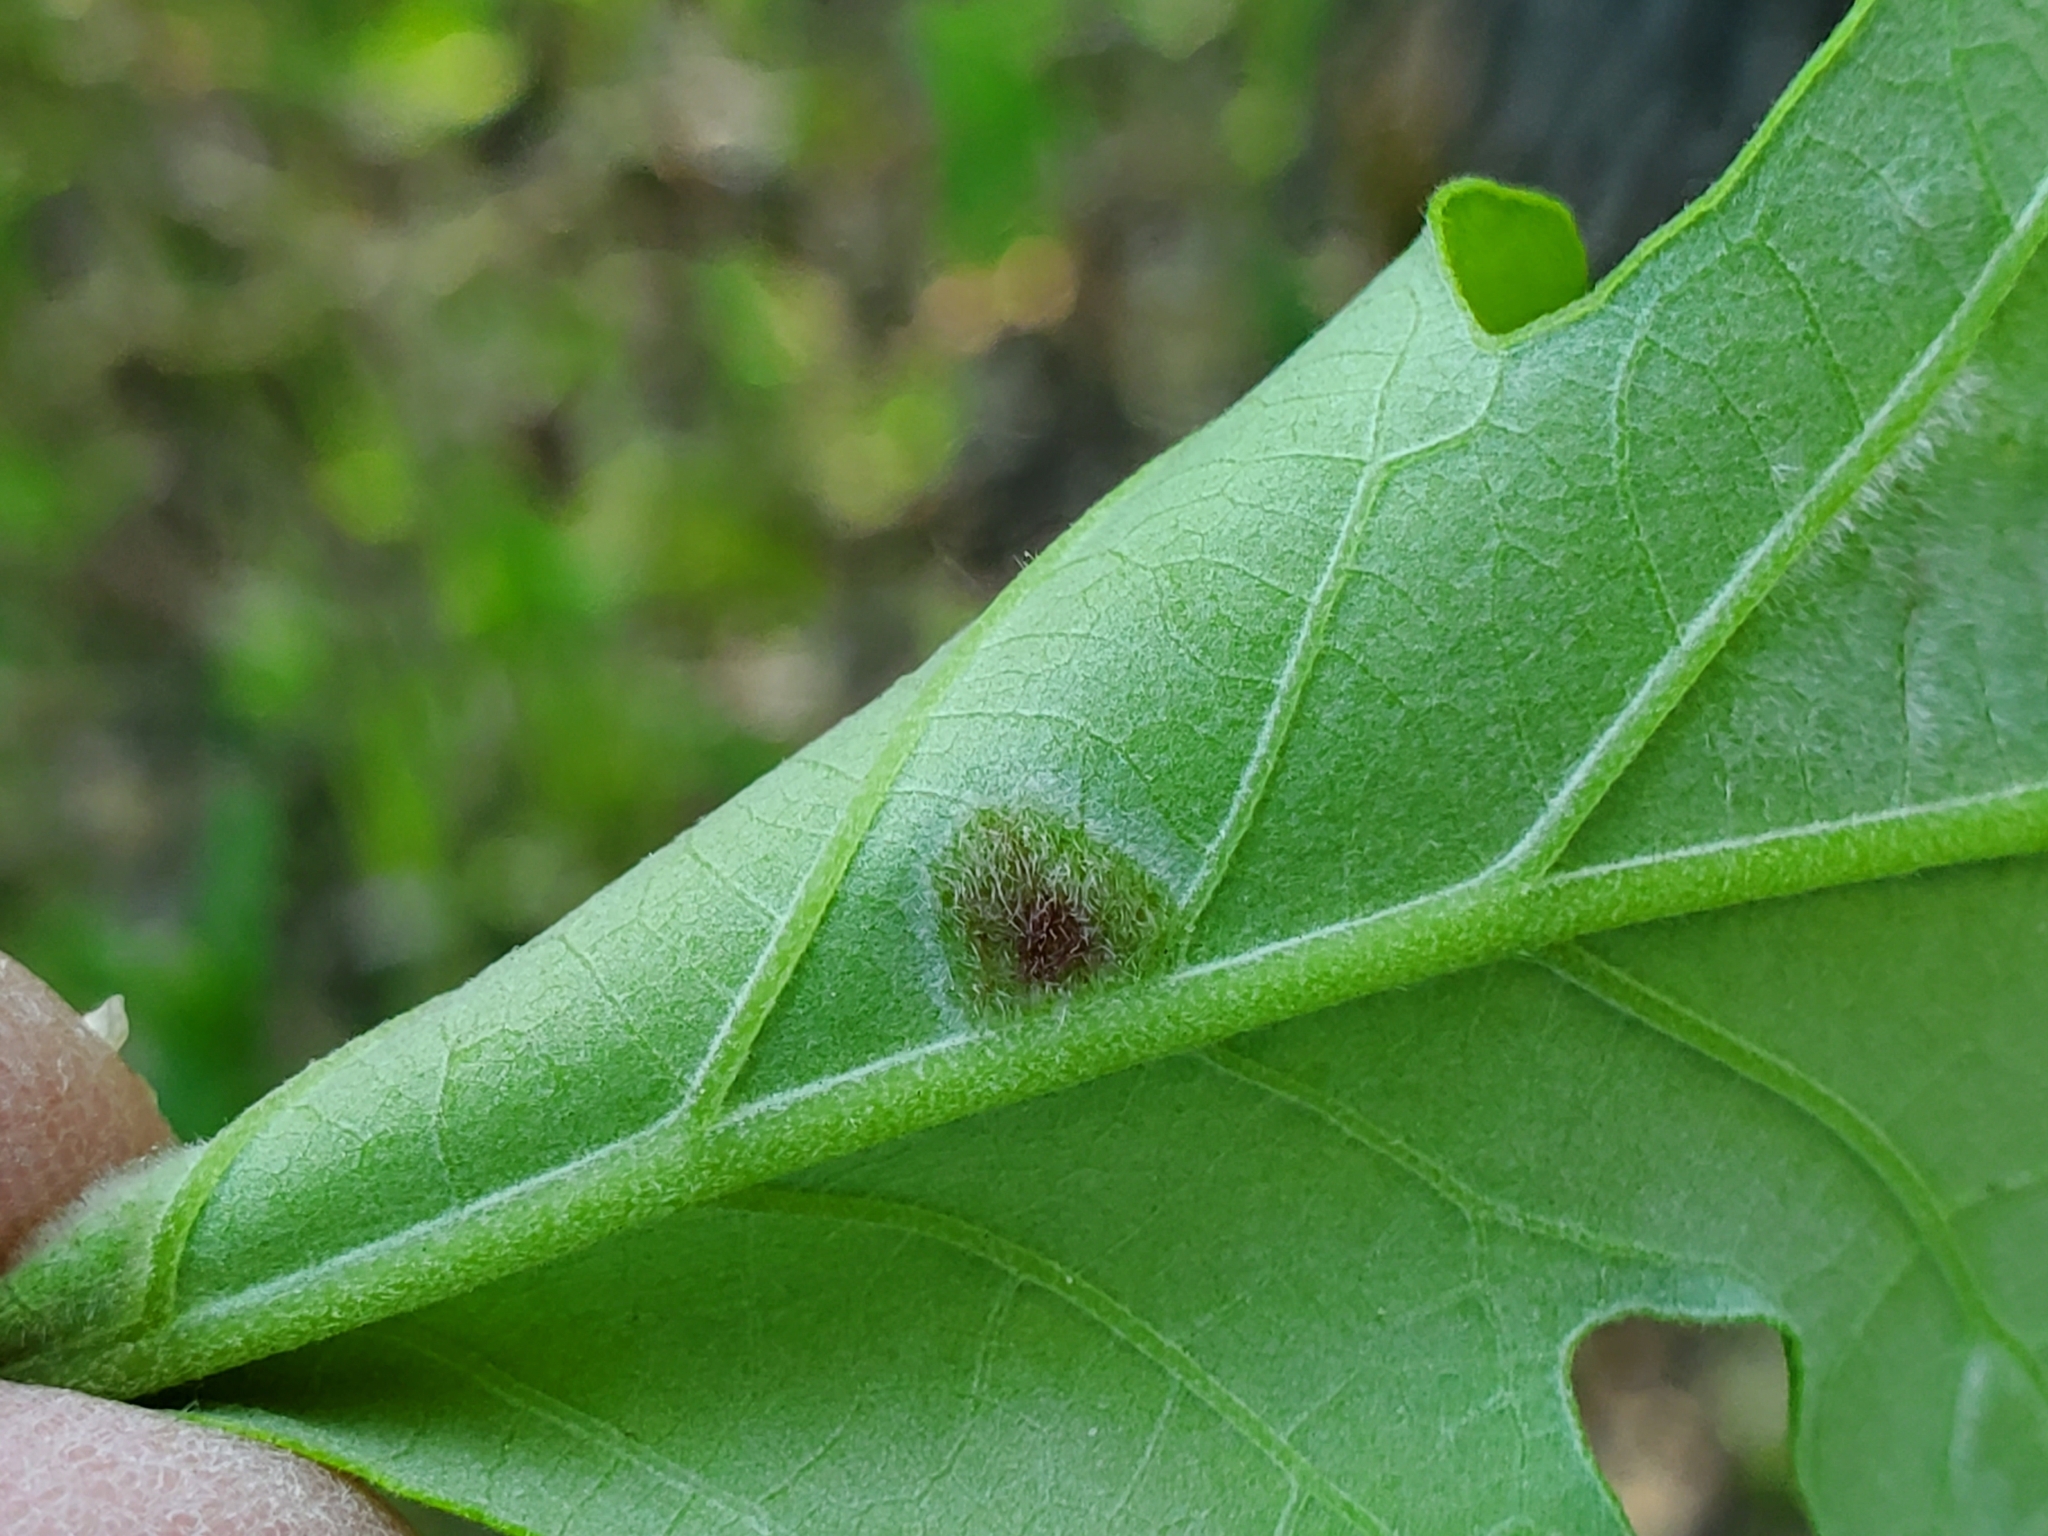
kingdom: Animalia
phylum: Arthropoda
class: Arachnida
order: Trombidiformes
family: Eriophyidae
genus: Aceria
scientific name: Aceria quercina
